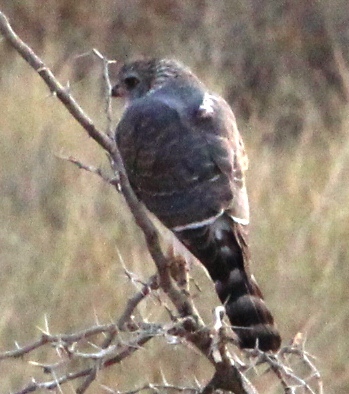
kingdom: Animalia
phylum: Chordata
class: Aves
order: Accipitriformes
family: Accipitridae
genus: Micronisus
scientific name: Micronisus gabar
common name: Gabar goshawk
